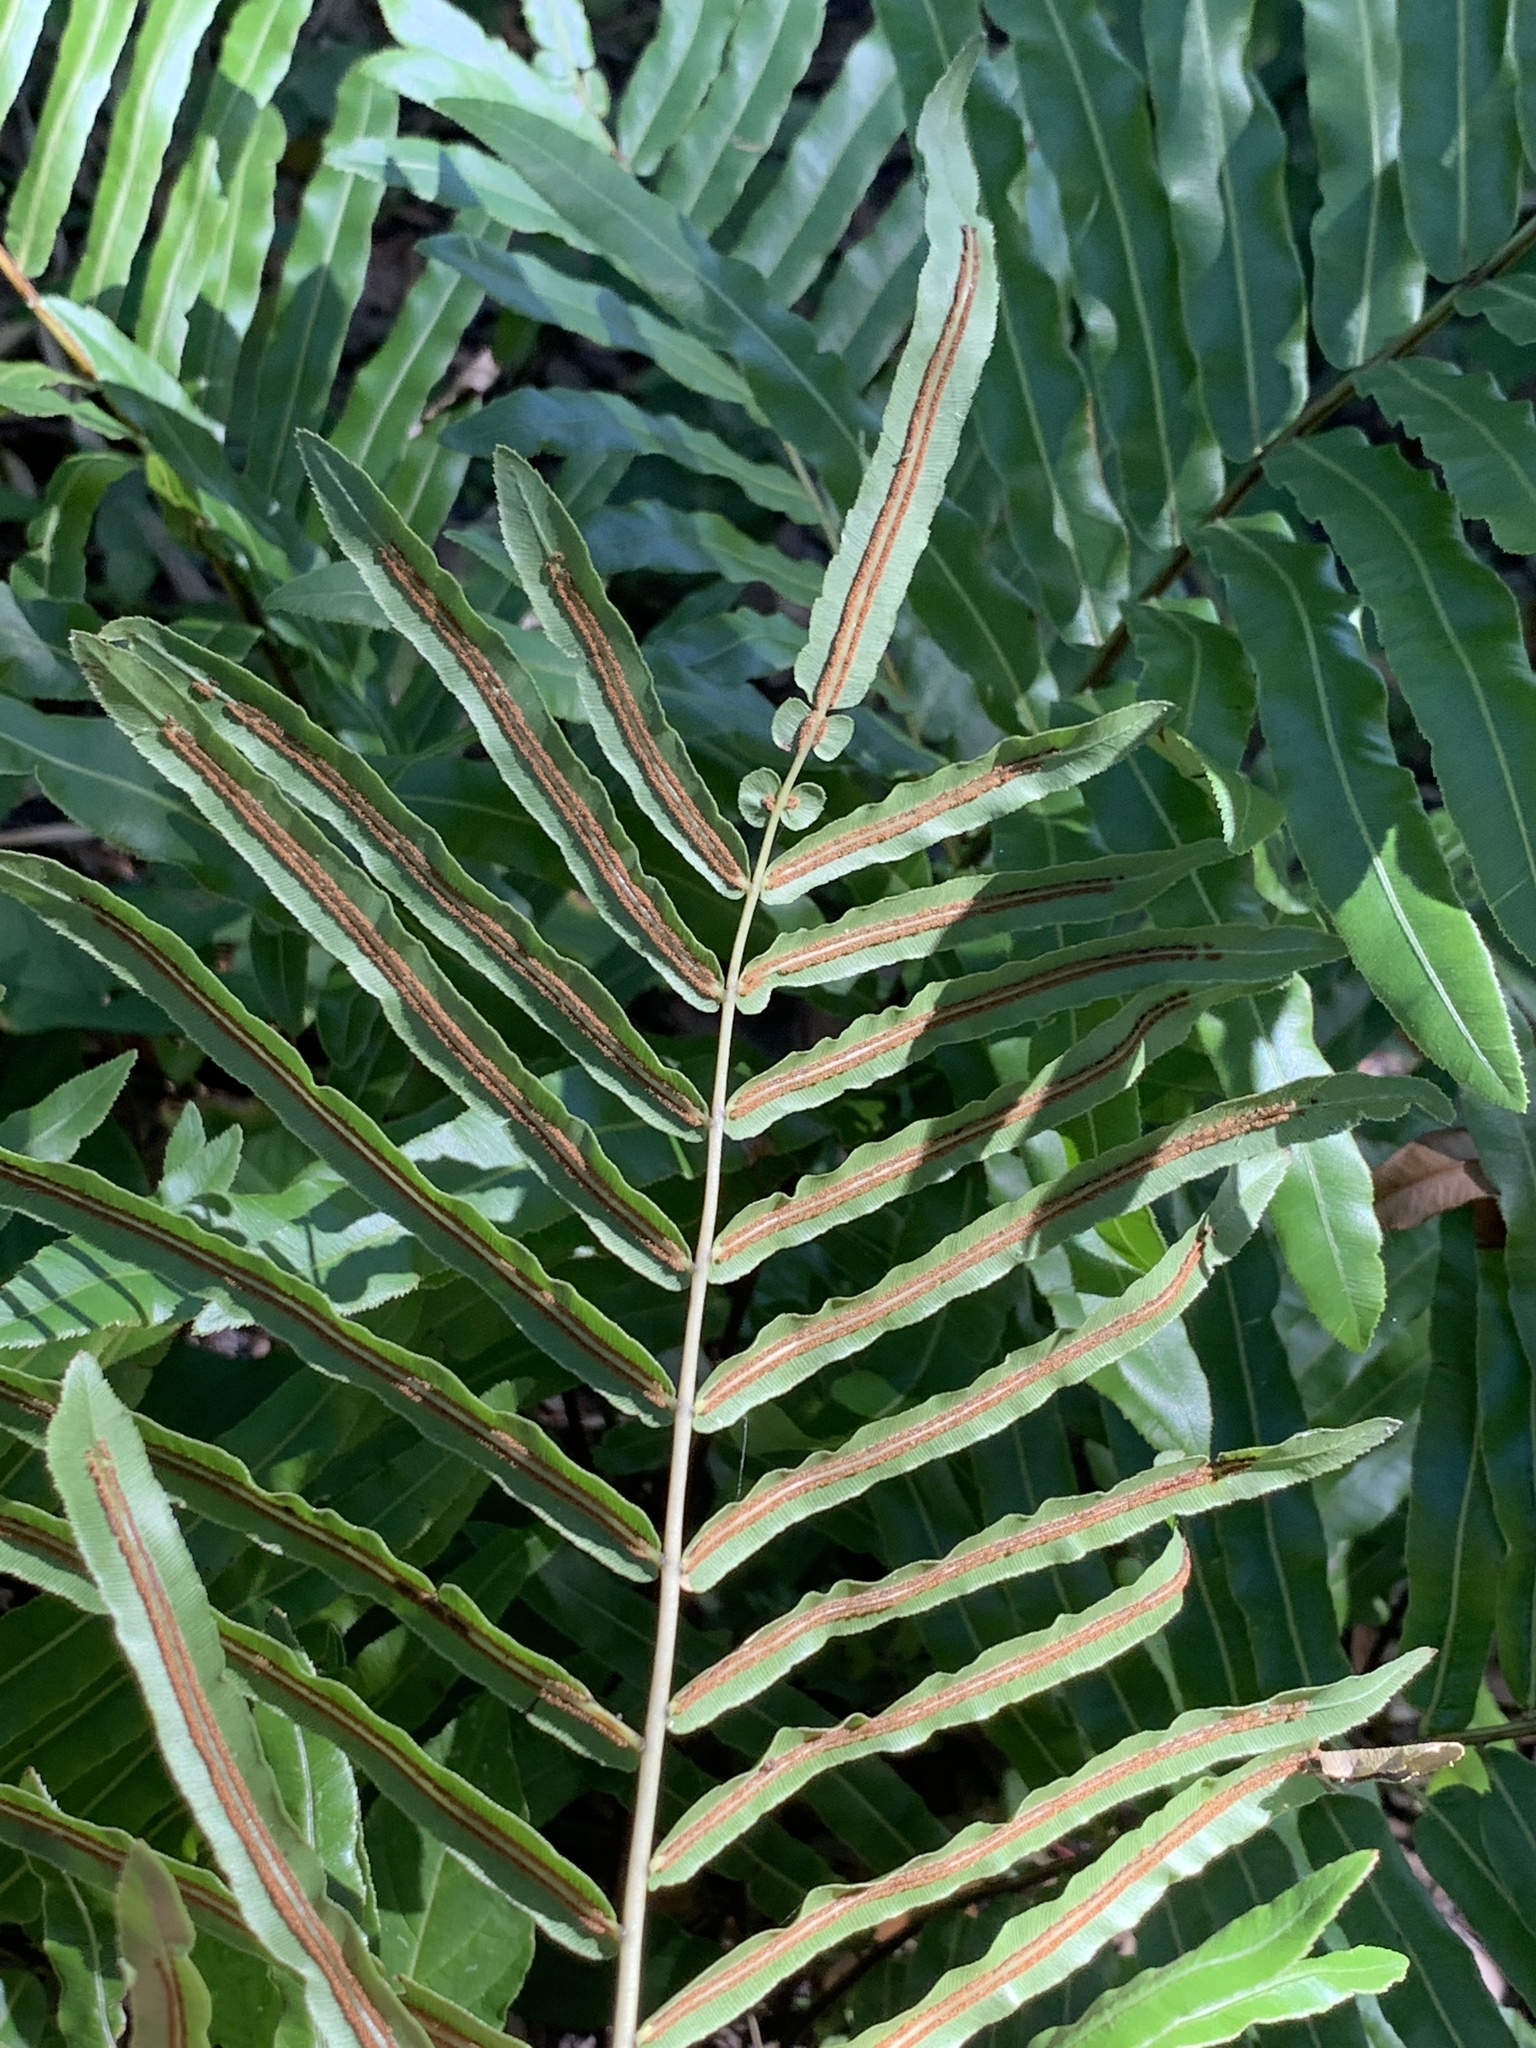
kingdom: Plantae
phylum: Tracheophyta
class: Polypodiopsida
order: Polypodiales
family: Blechnaceae
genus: Telmatoblechnum
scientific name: Telmatoblechnum serrulatum
